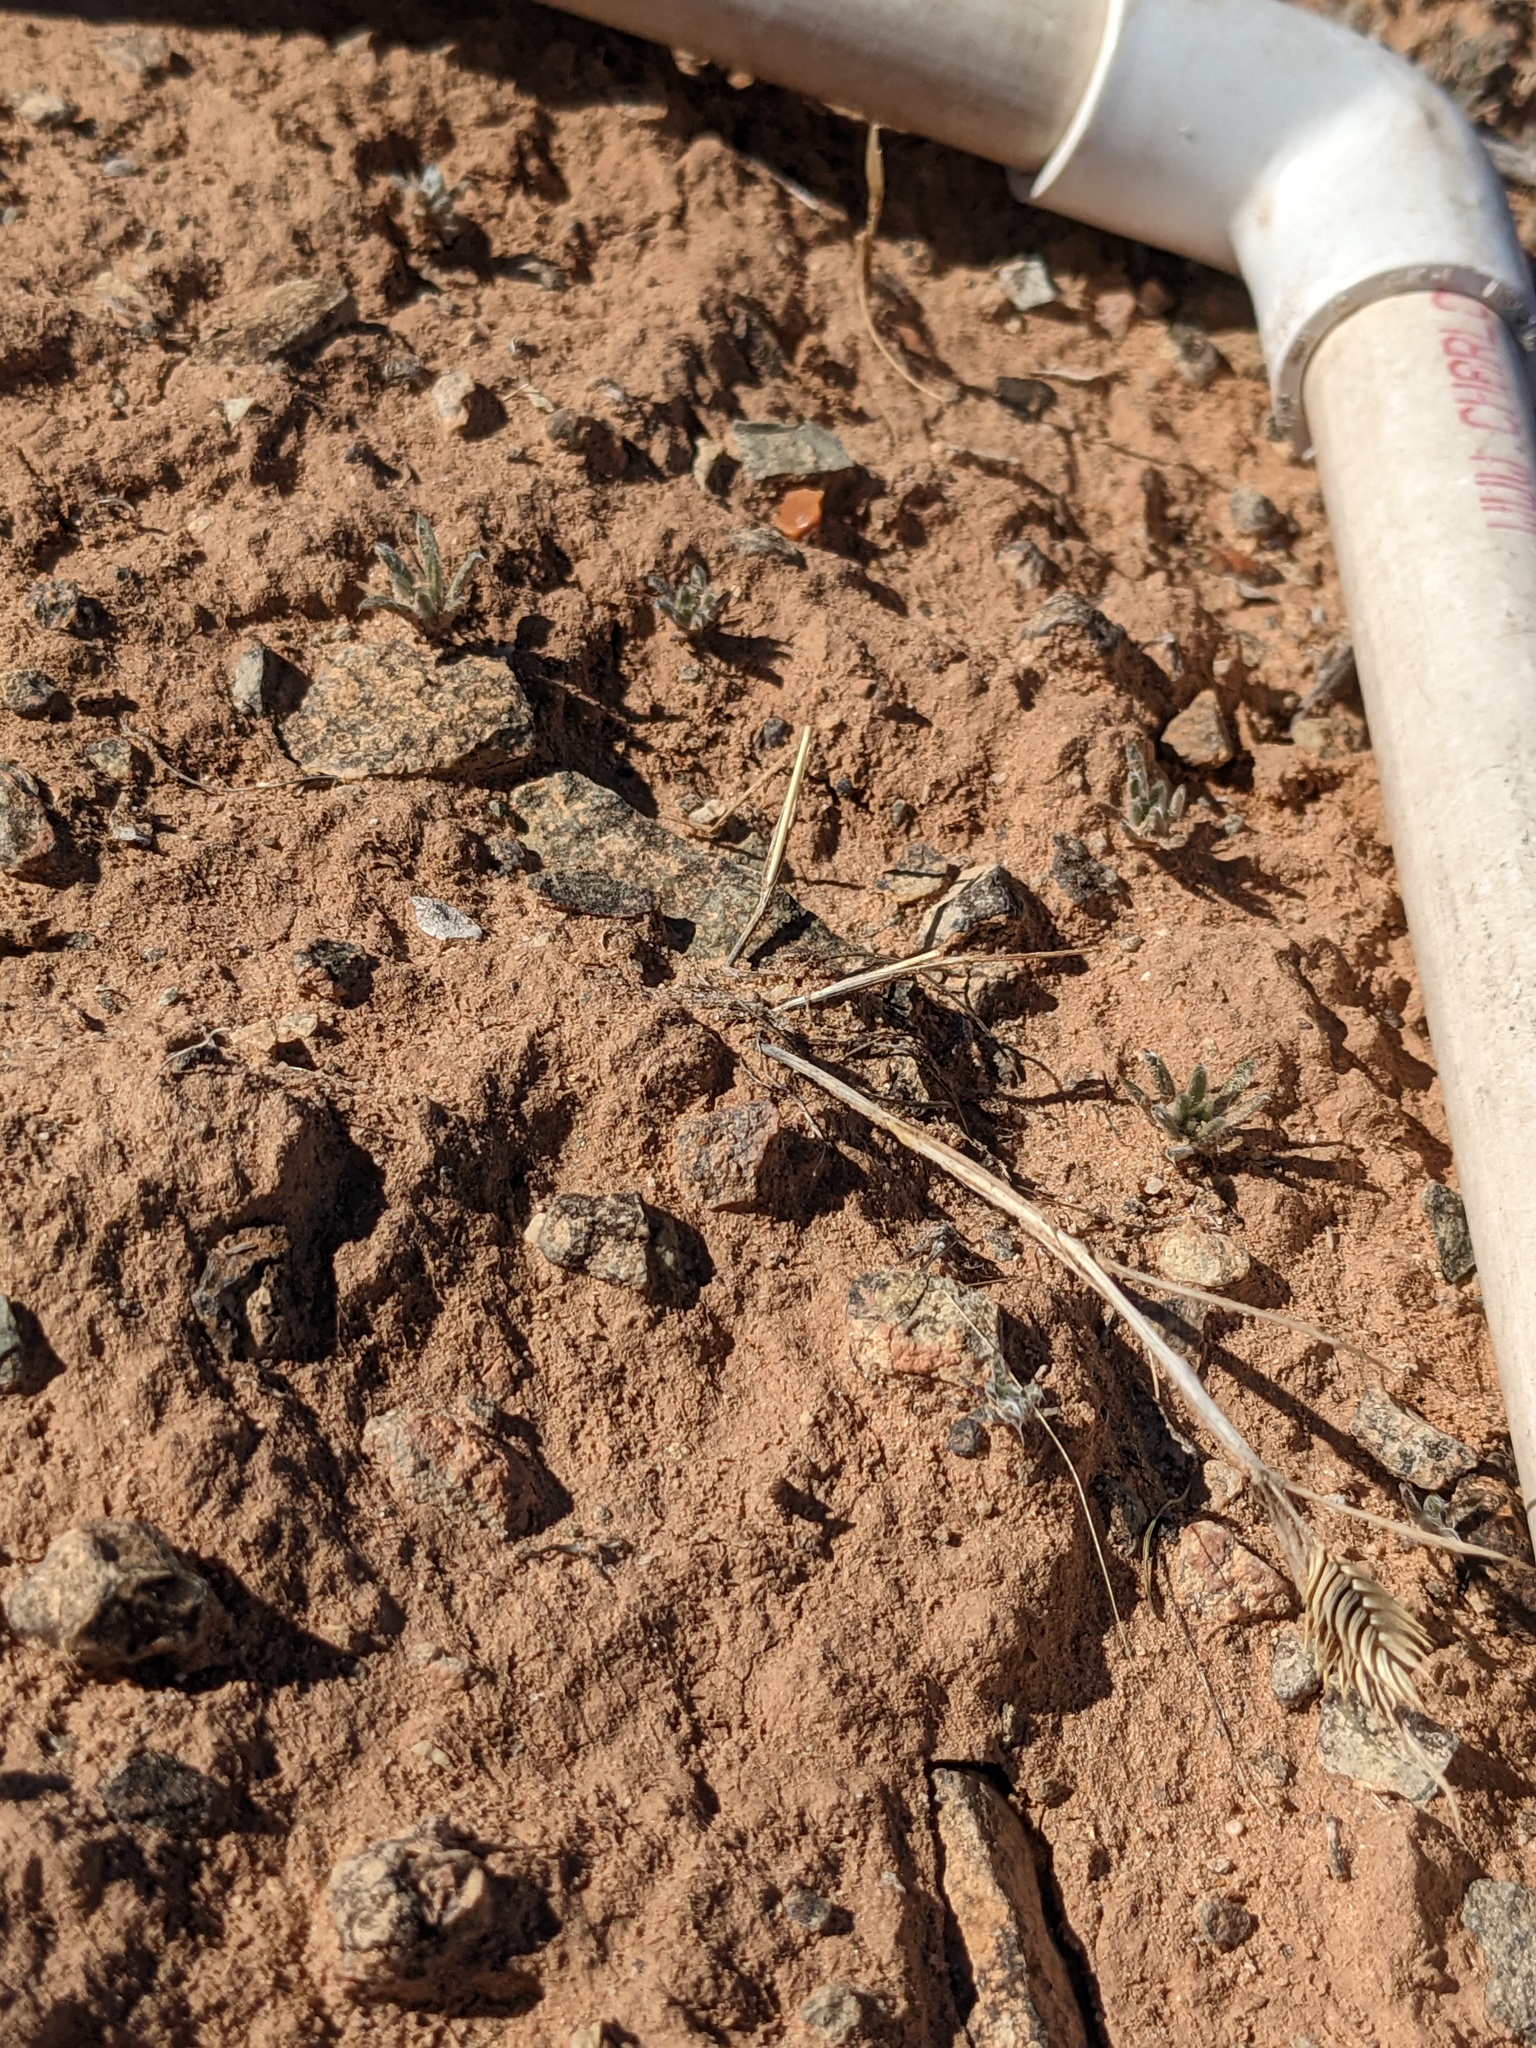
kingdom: Plantae
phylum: Tracheophyta
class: Liliopsida
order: Poales
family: Poaceae
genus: Eremopyrum
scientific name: Eremopyrum triticeum
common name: Annual wheatgrass
